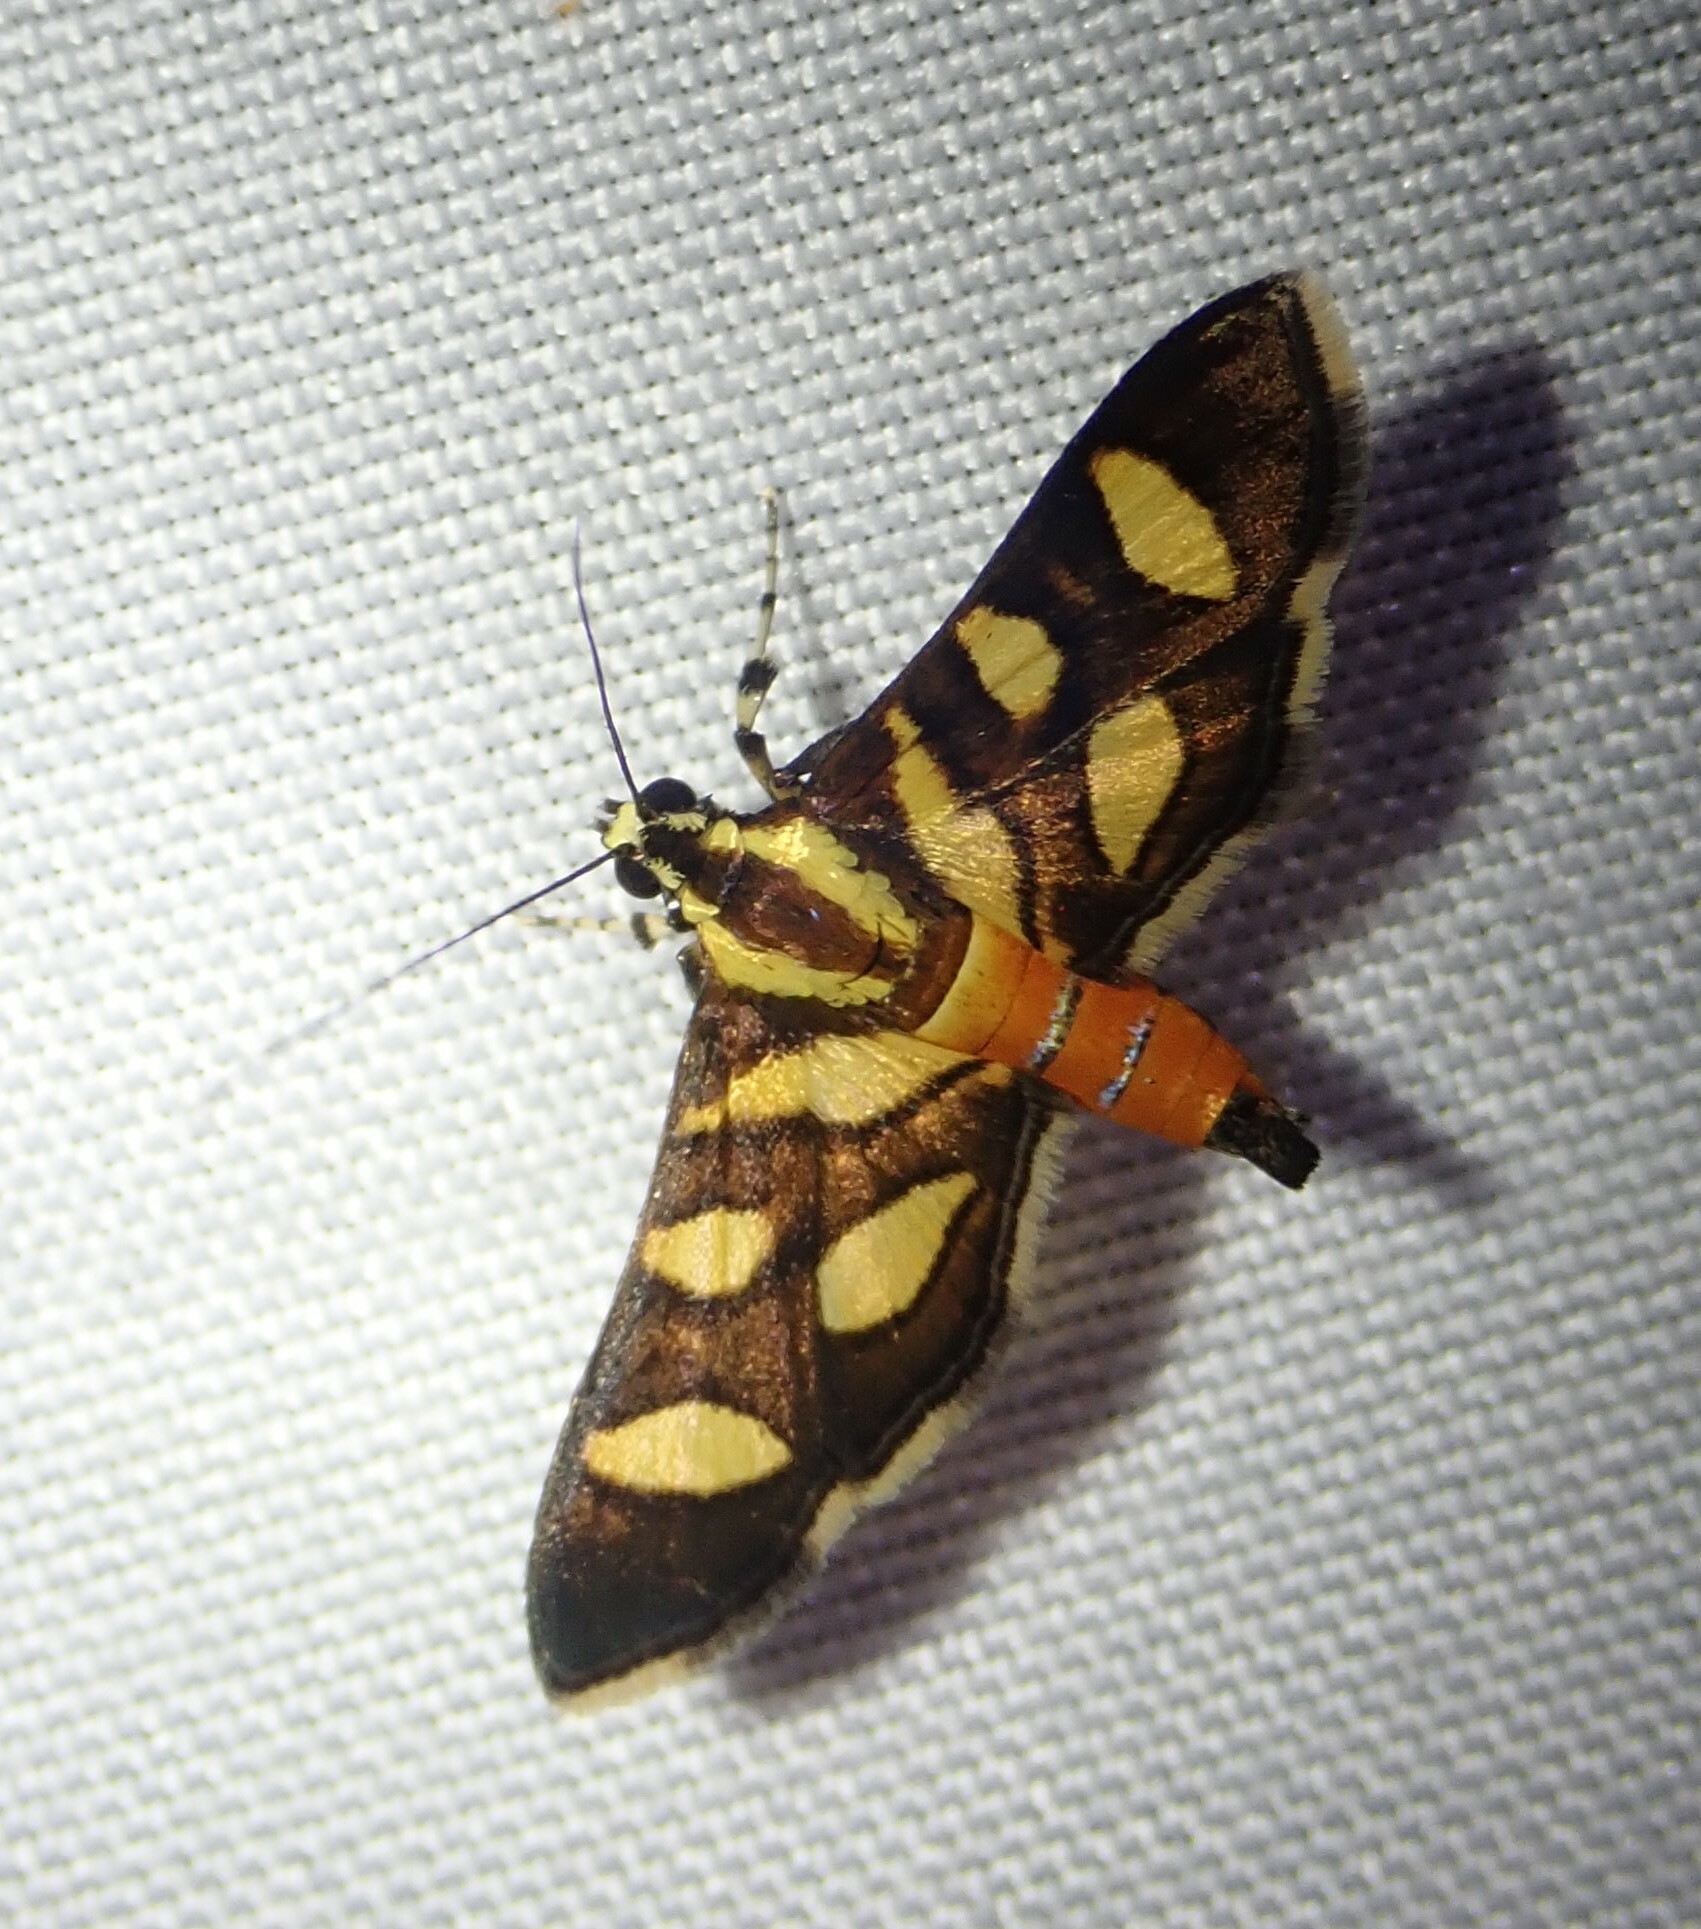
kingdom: Animalia
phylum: Arthropoda
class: Insecta
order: Lepidoptera
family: Crambidae
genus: Syngamia
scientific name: Syngamia florella
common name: Orange-spotted flower moth
